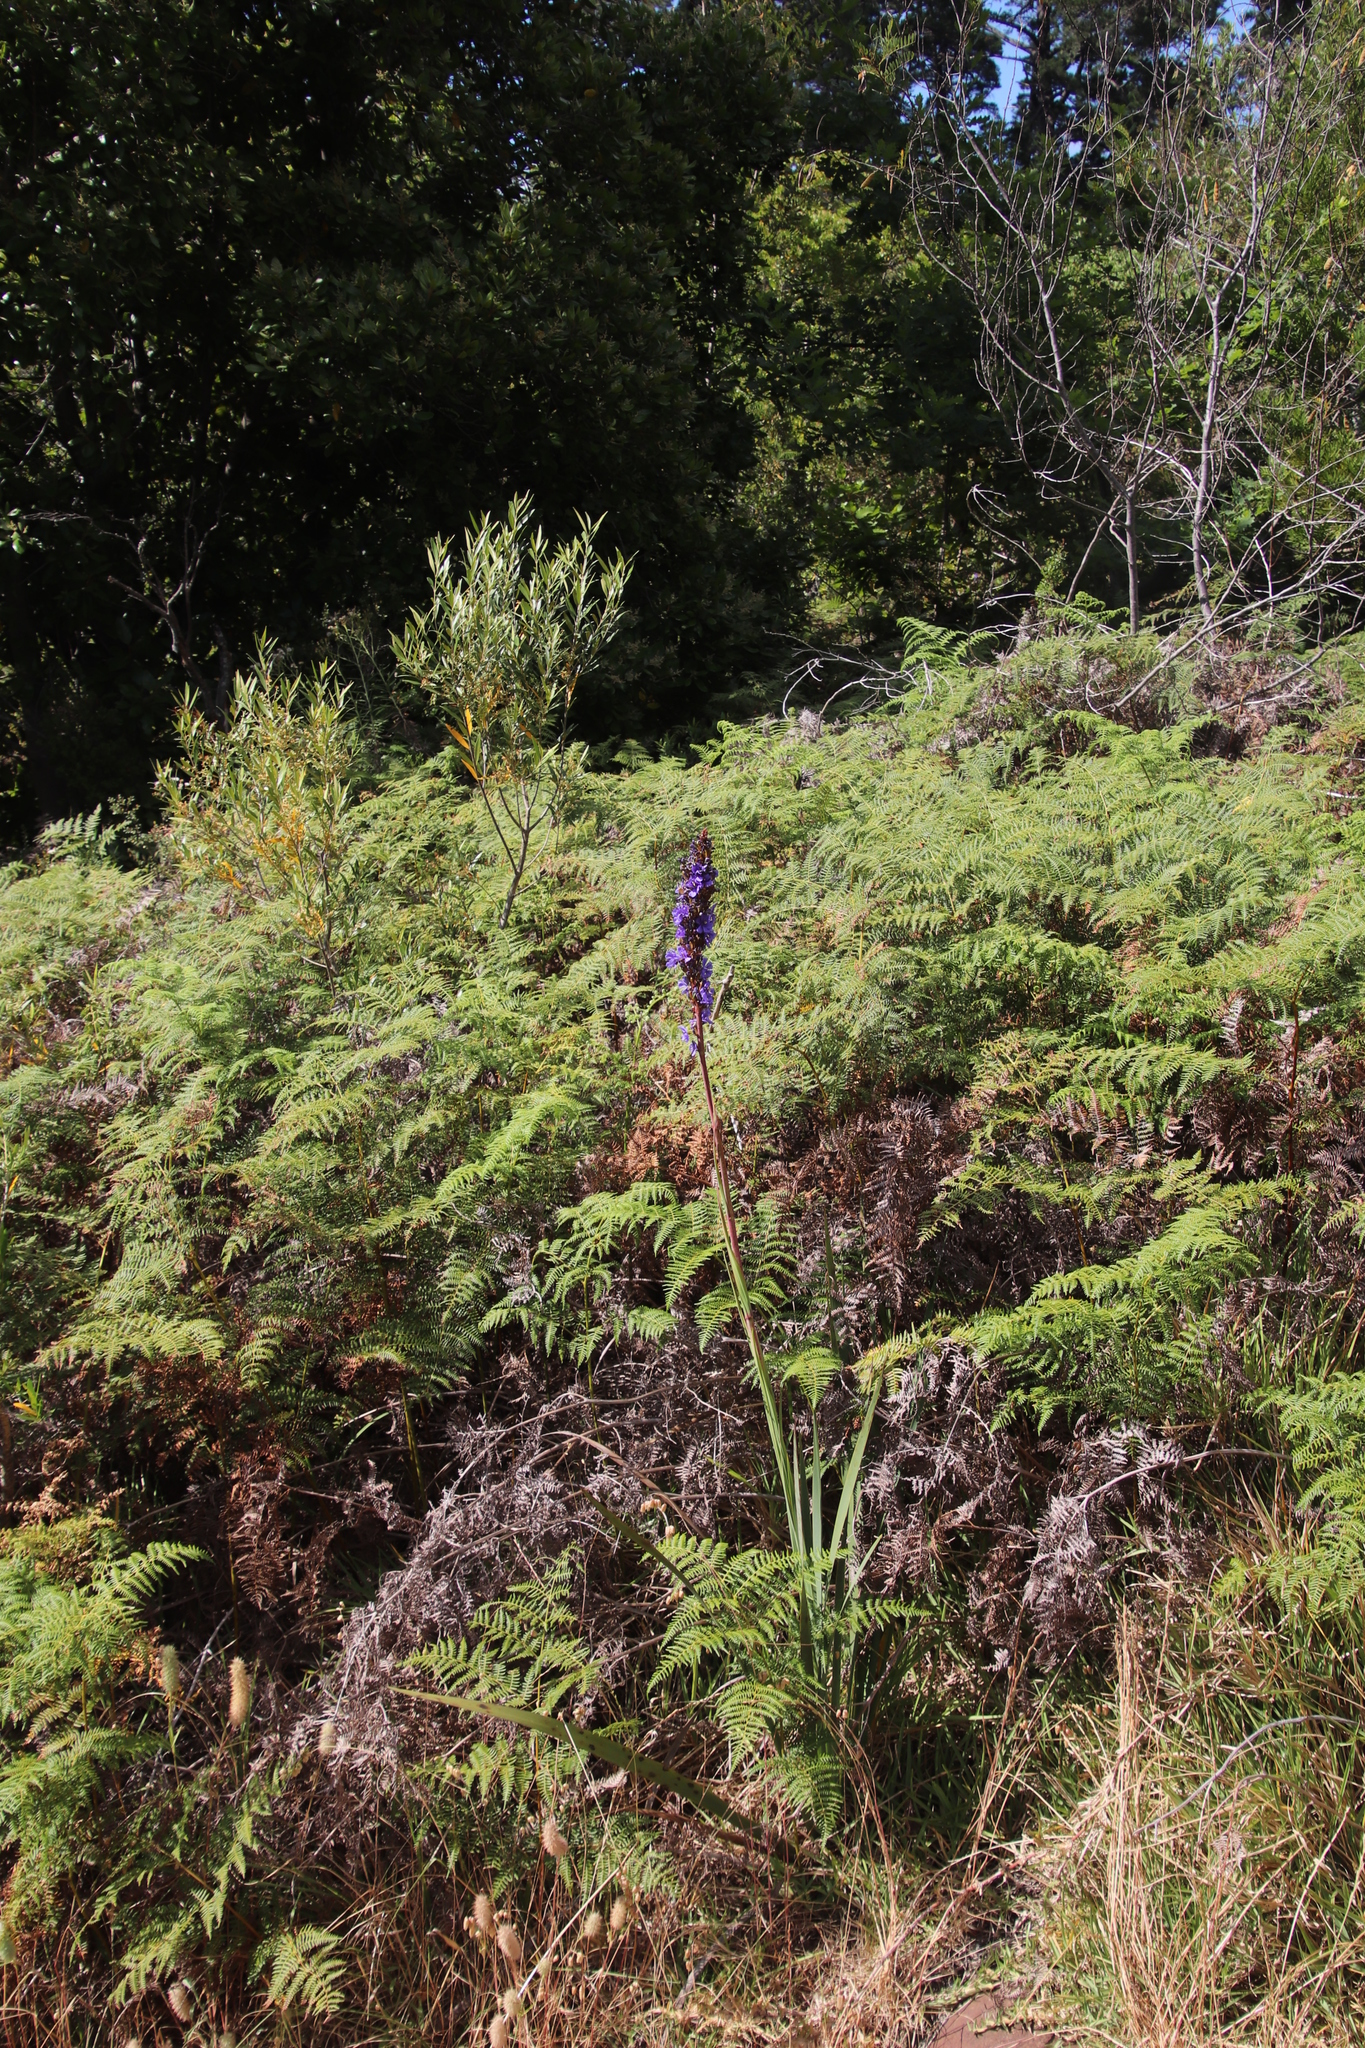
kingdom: Plantae
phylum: Tracheophyta
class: Liliopsida
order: Asparagales
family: Iridaceae
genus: Aristea
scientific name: Aristea capitata
